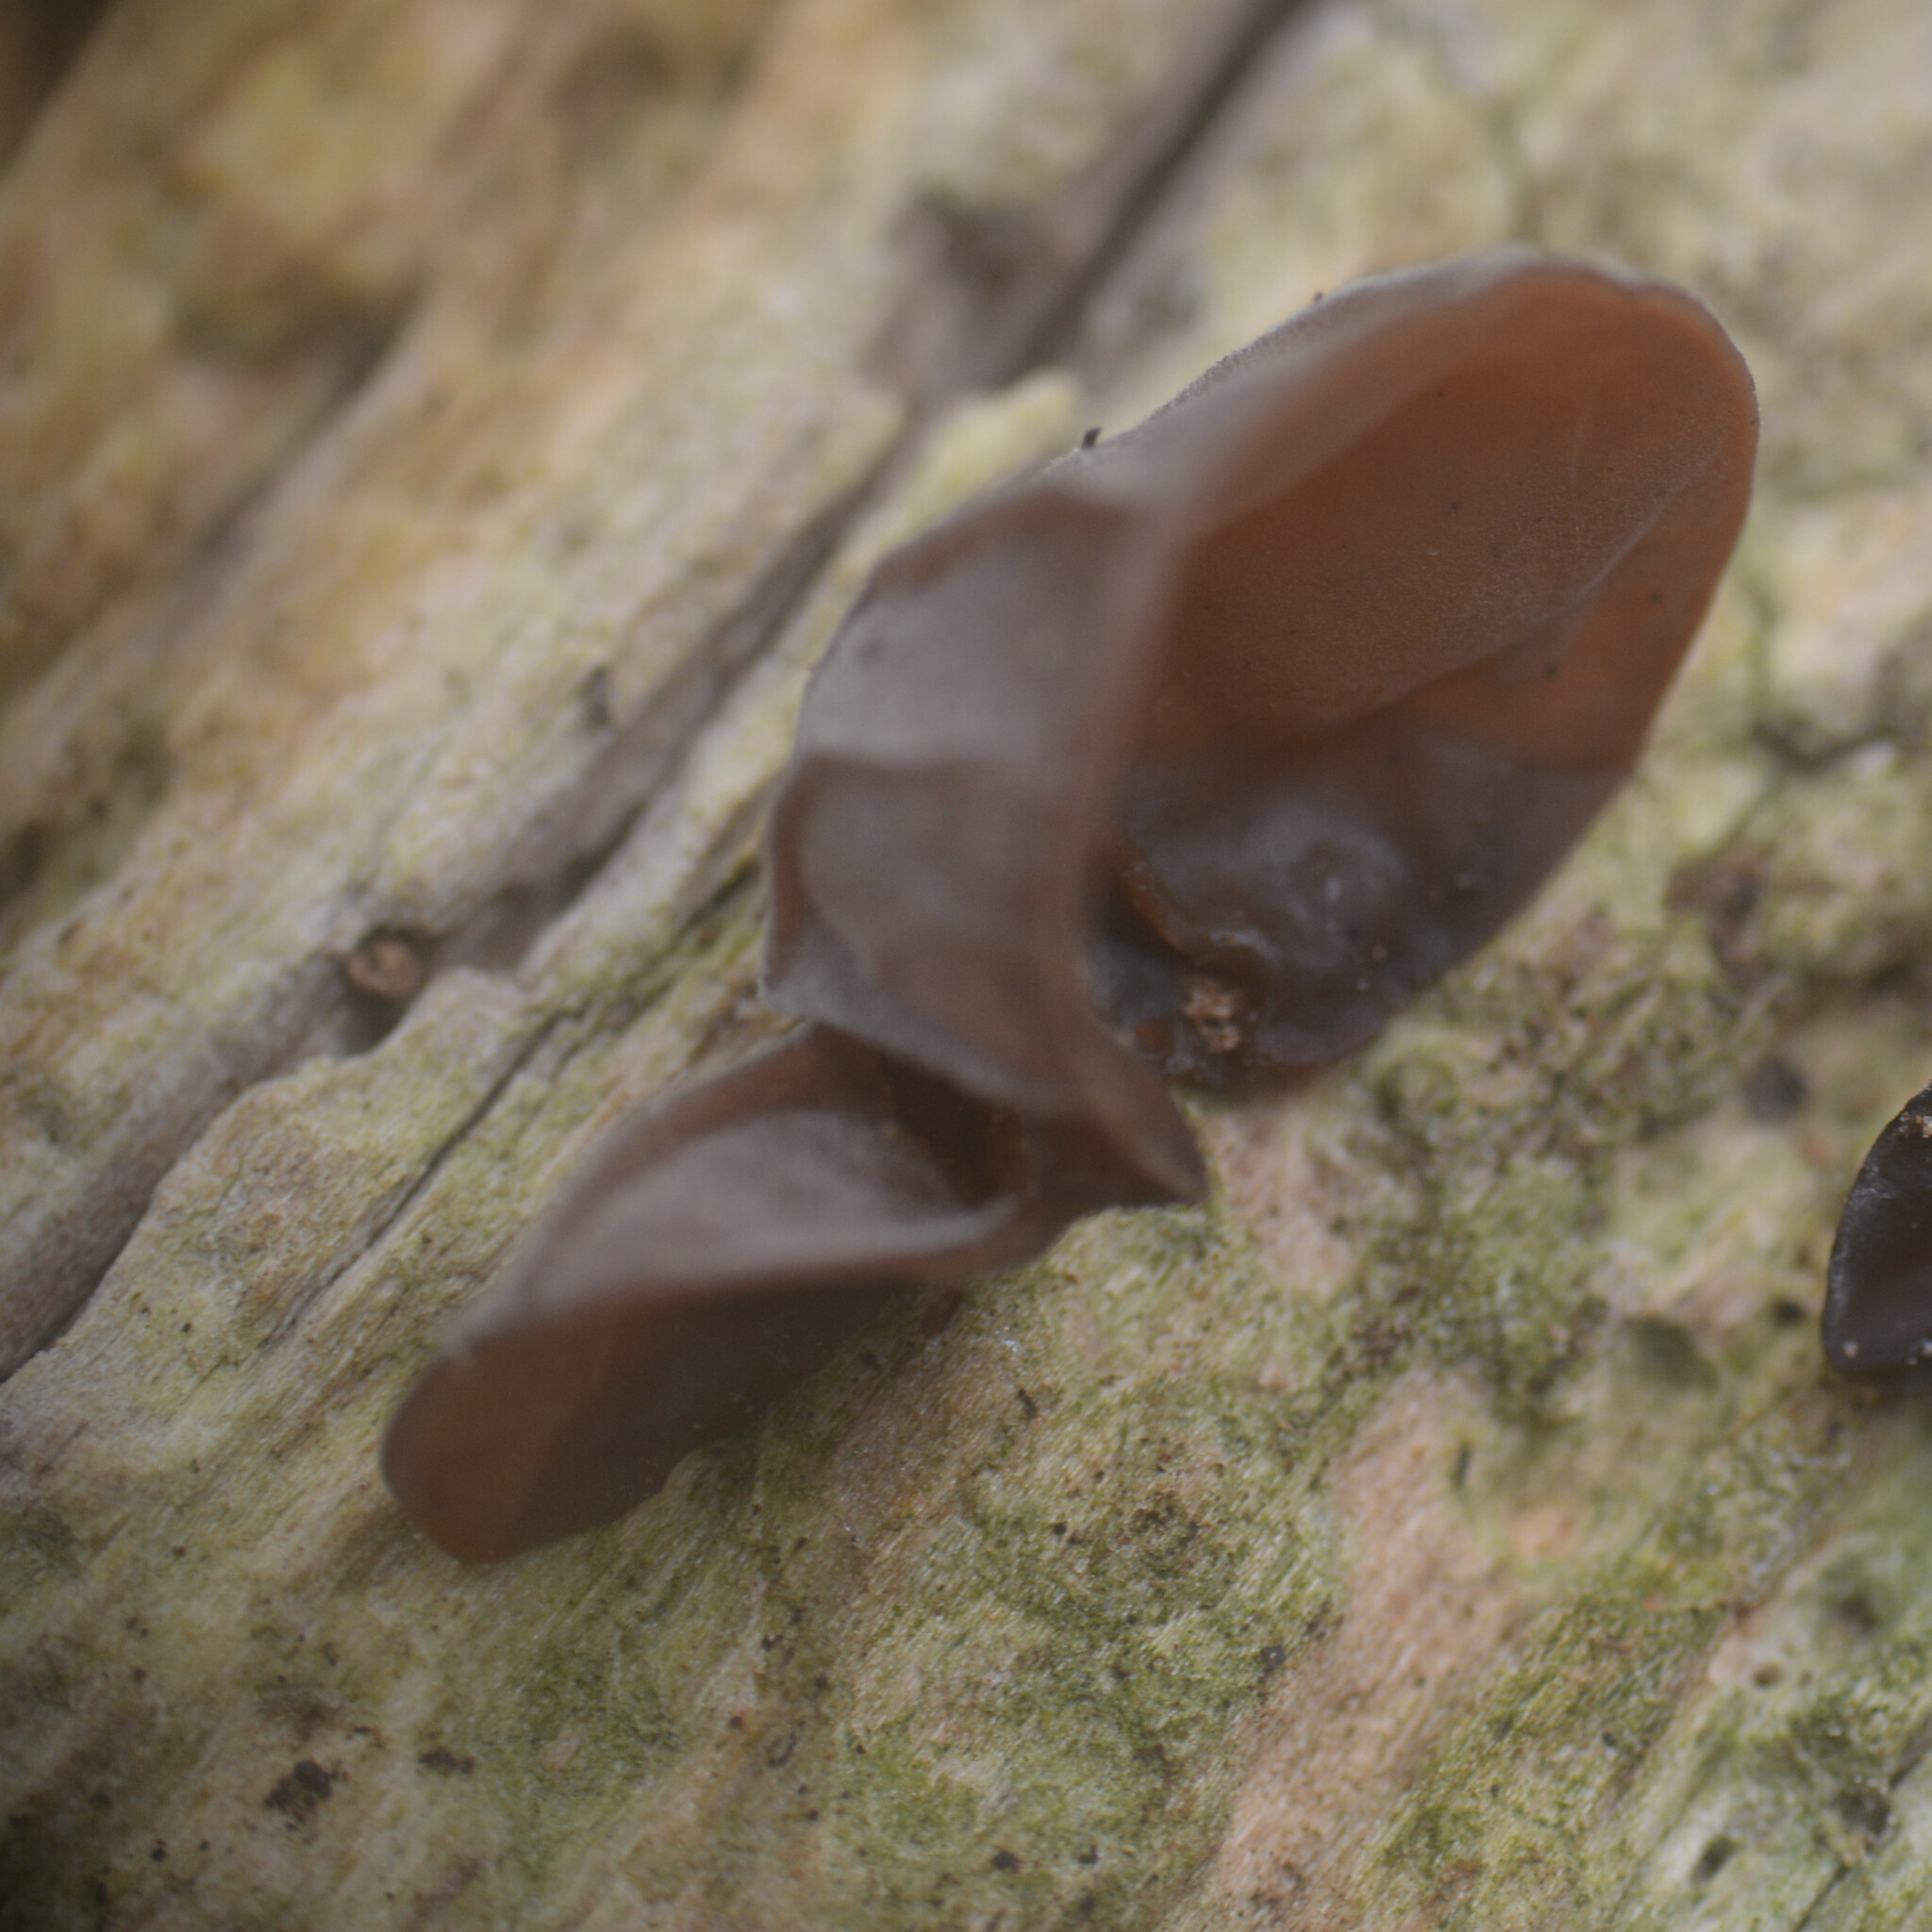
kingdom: Fungi
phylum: Basidiomycota
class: Agaricomycetes
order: Auriculariales
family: Auriculariaceae
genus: Auricularia
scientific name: Auricularia auricula-judae
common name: Jelly ear
